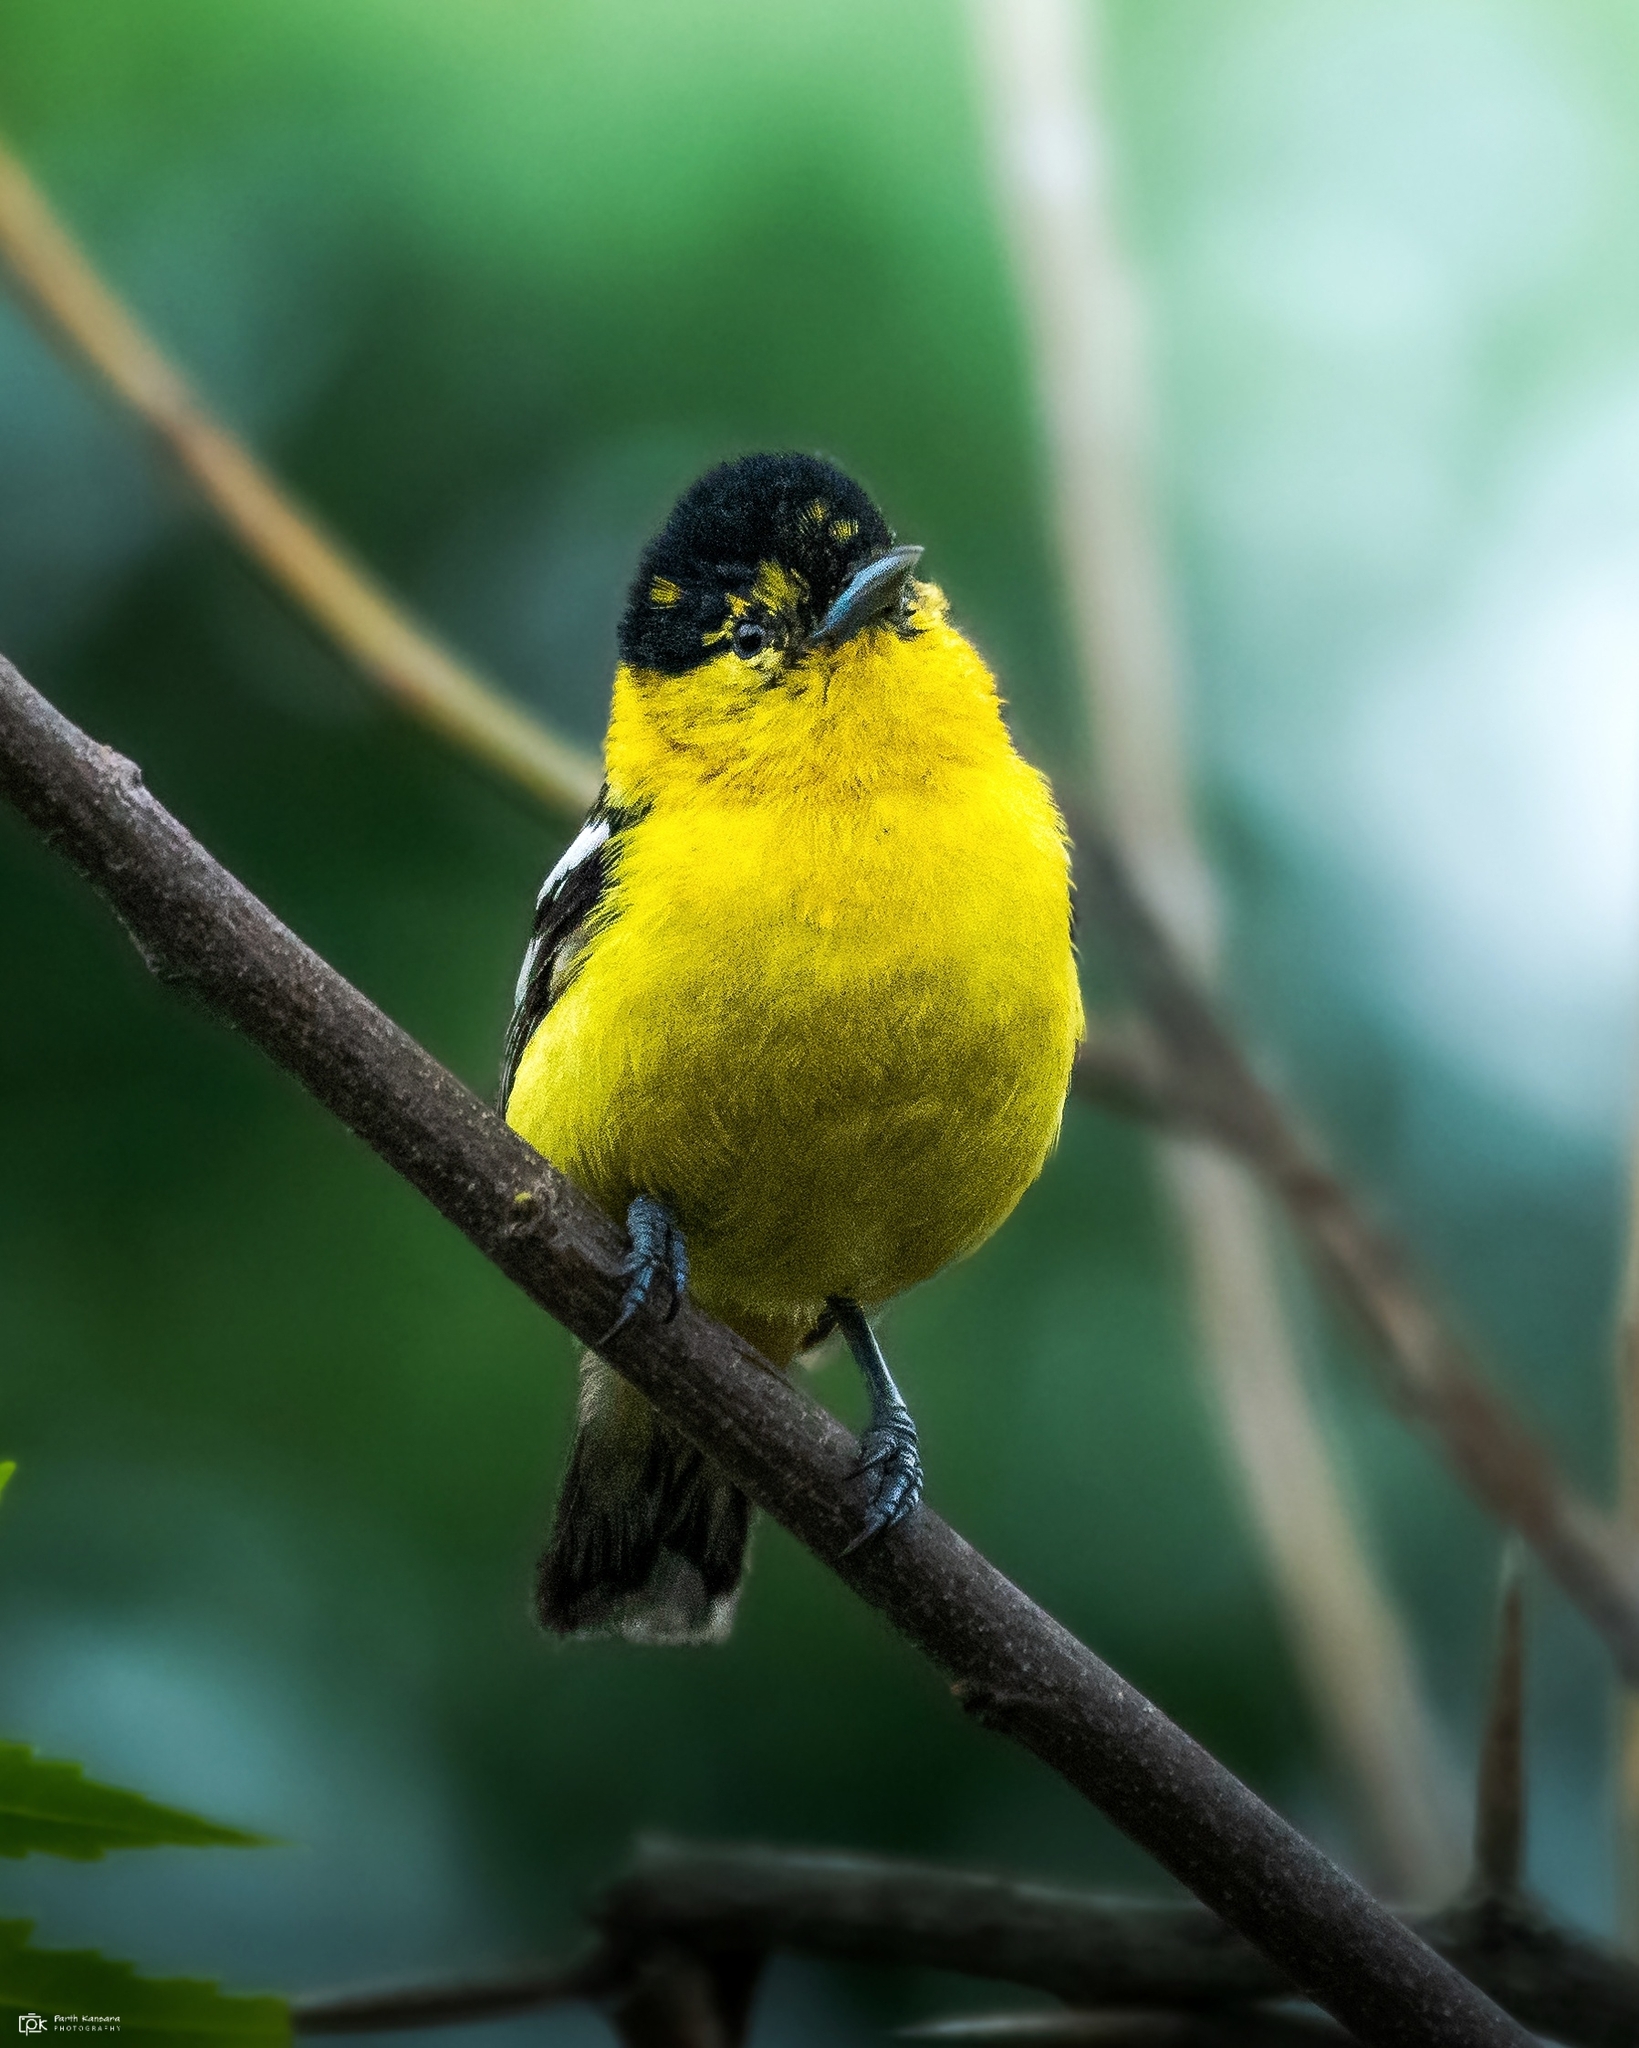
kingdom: Animalia
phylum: Chordata
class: Aves
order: Passeriformes
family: Aegithinidae
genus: Aegithina
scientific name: Aegithina nigrolutea
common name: Marshall's iora
